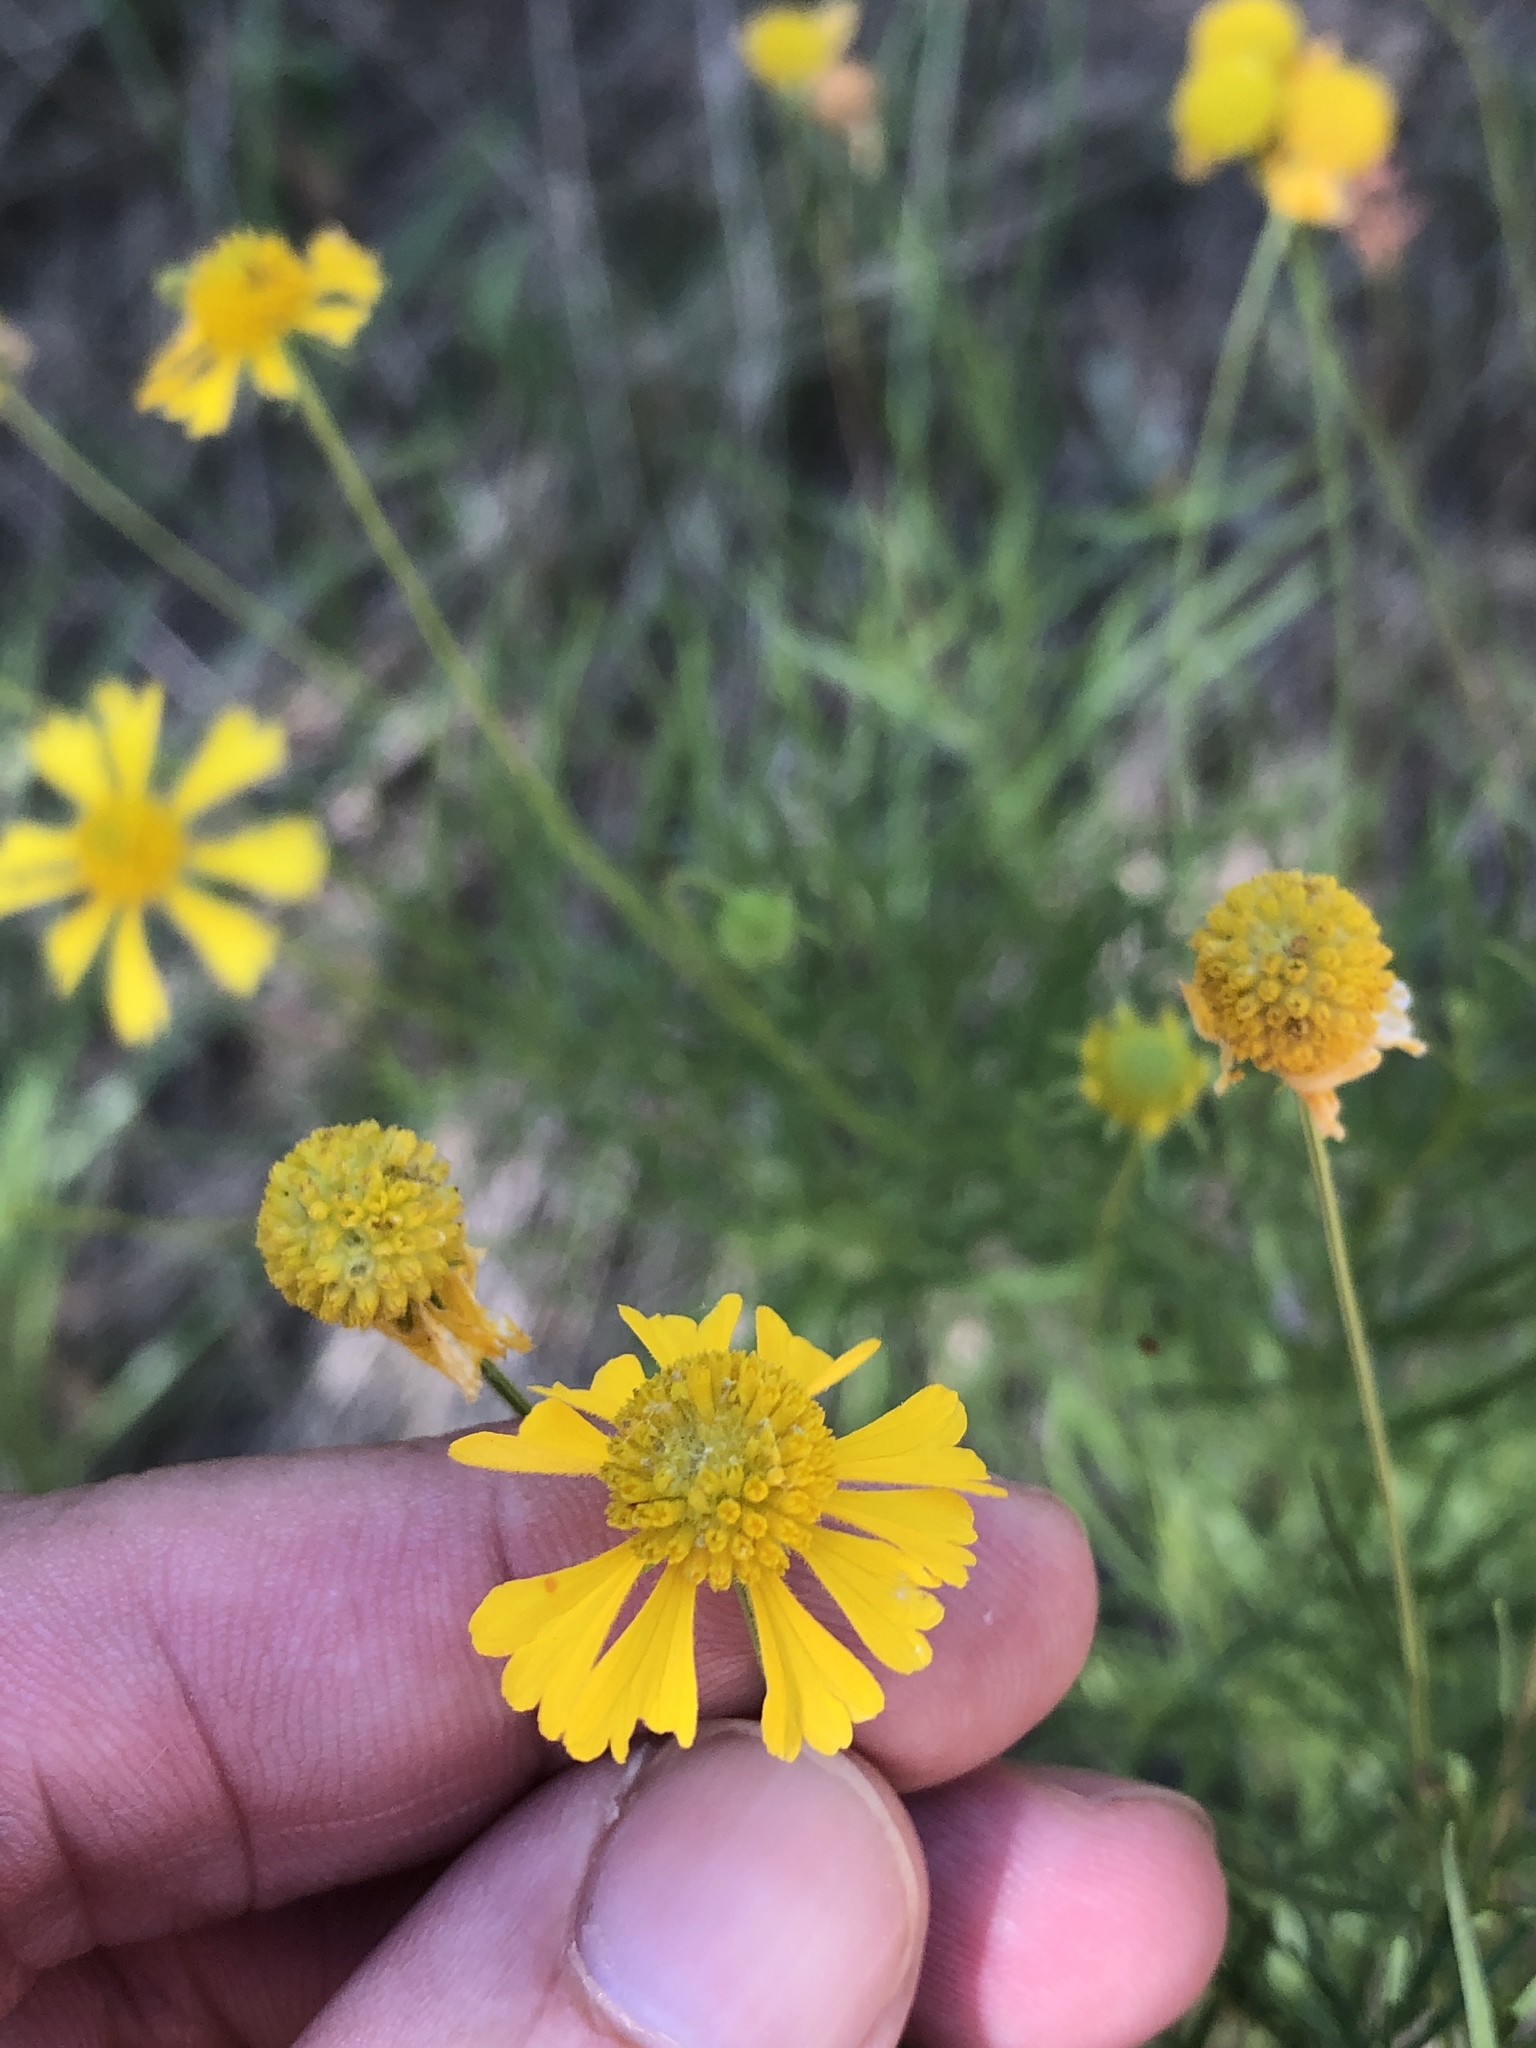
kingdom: Plantae
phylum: Tracheophyta
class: Magnoliopsida
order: Asterales
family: Asteraceae
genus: Helenium
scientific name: Helenium amarum
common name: Bitter sneezeweed
